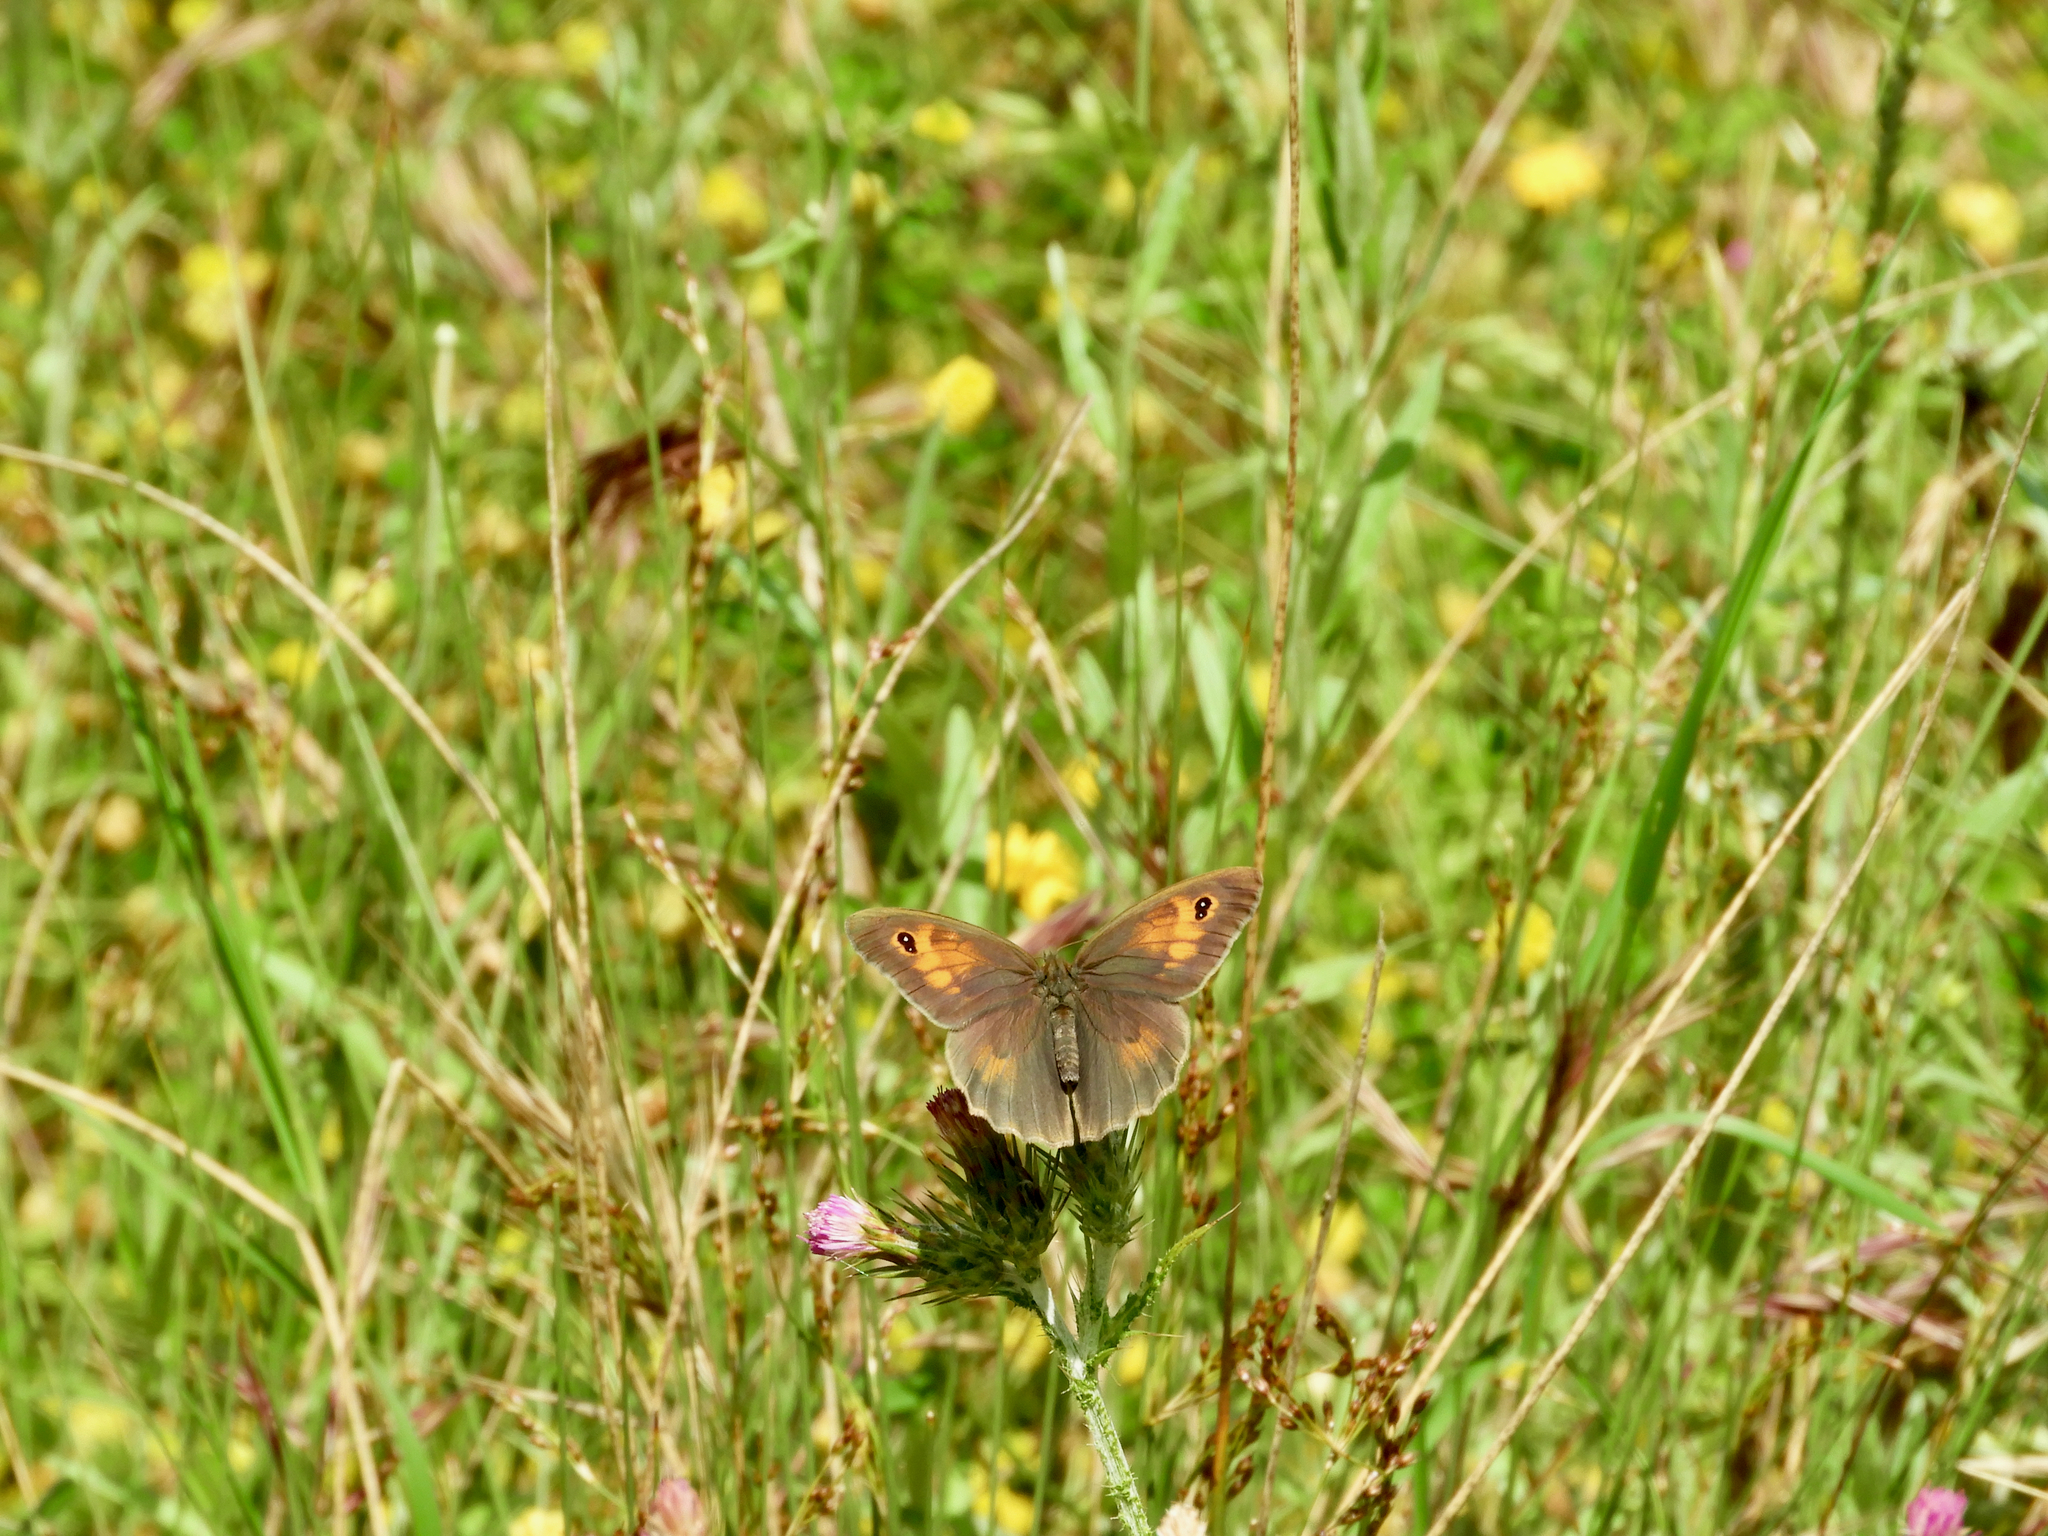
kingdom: Animalia
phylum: Arthropoda
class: Insecta
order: Lepidoptera
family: Nymphalidae
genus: Maniola
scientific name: Maniola jurtina
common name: Meadow brown
